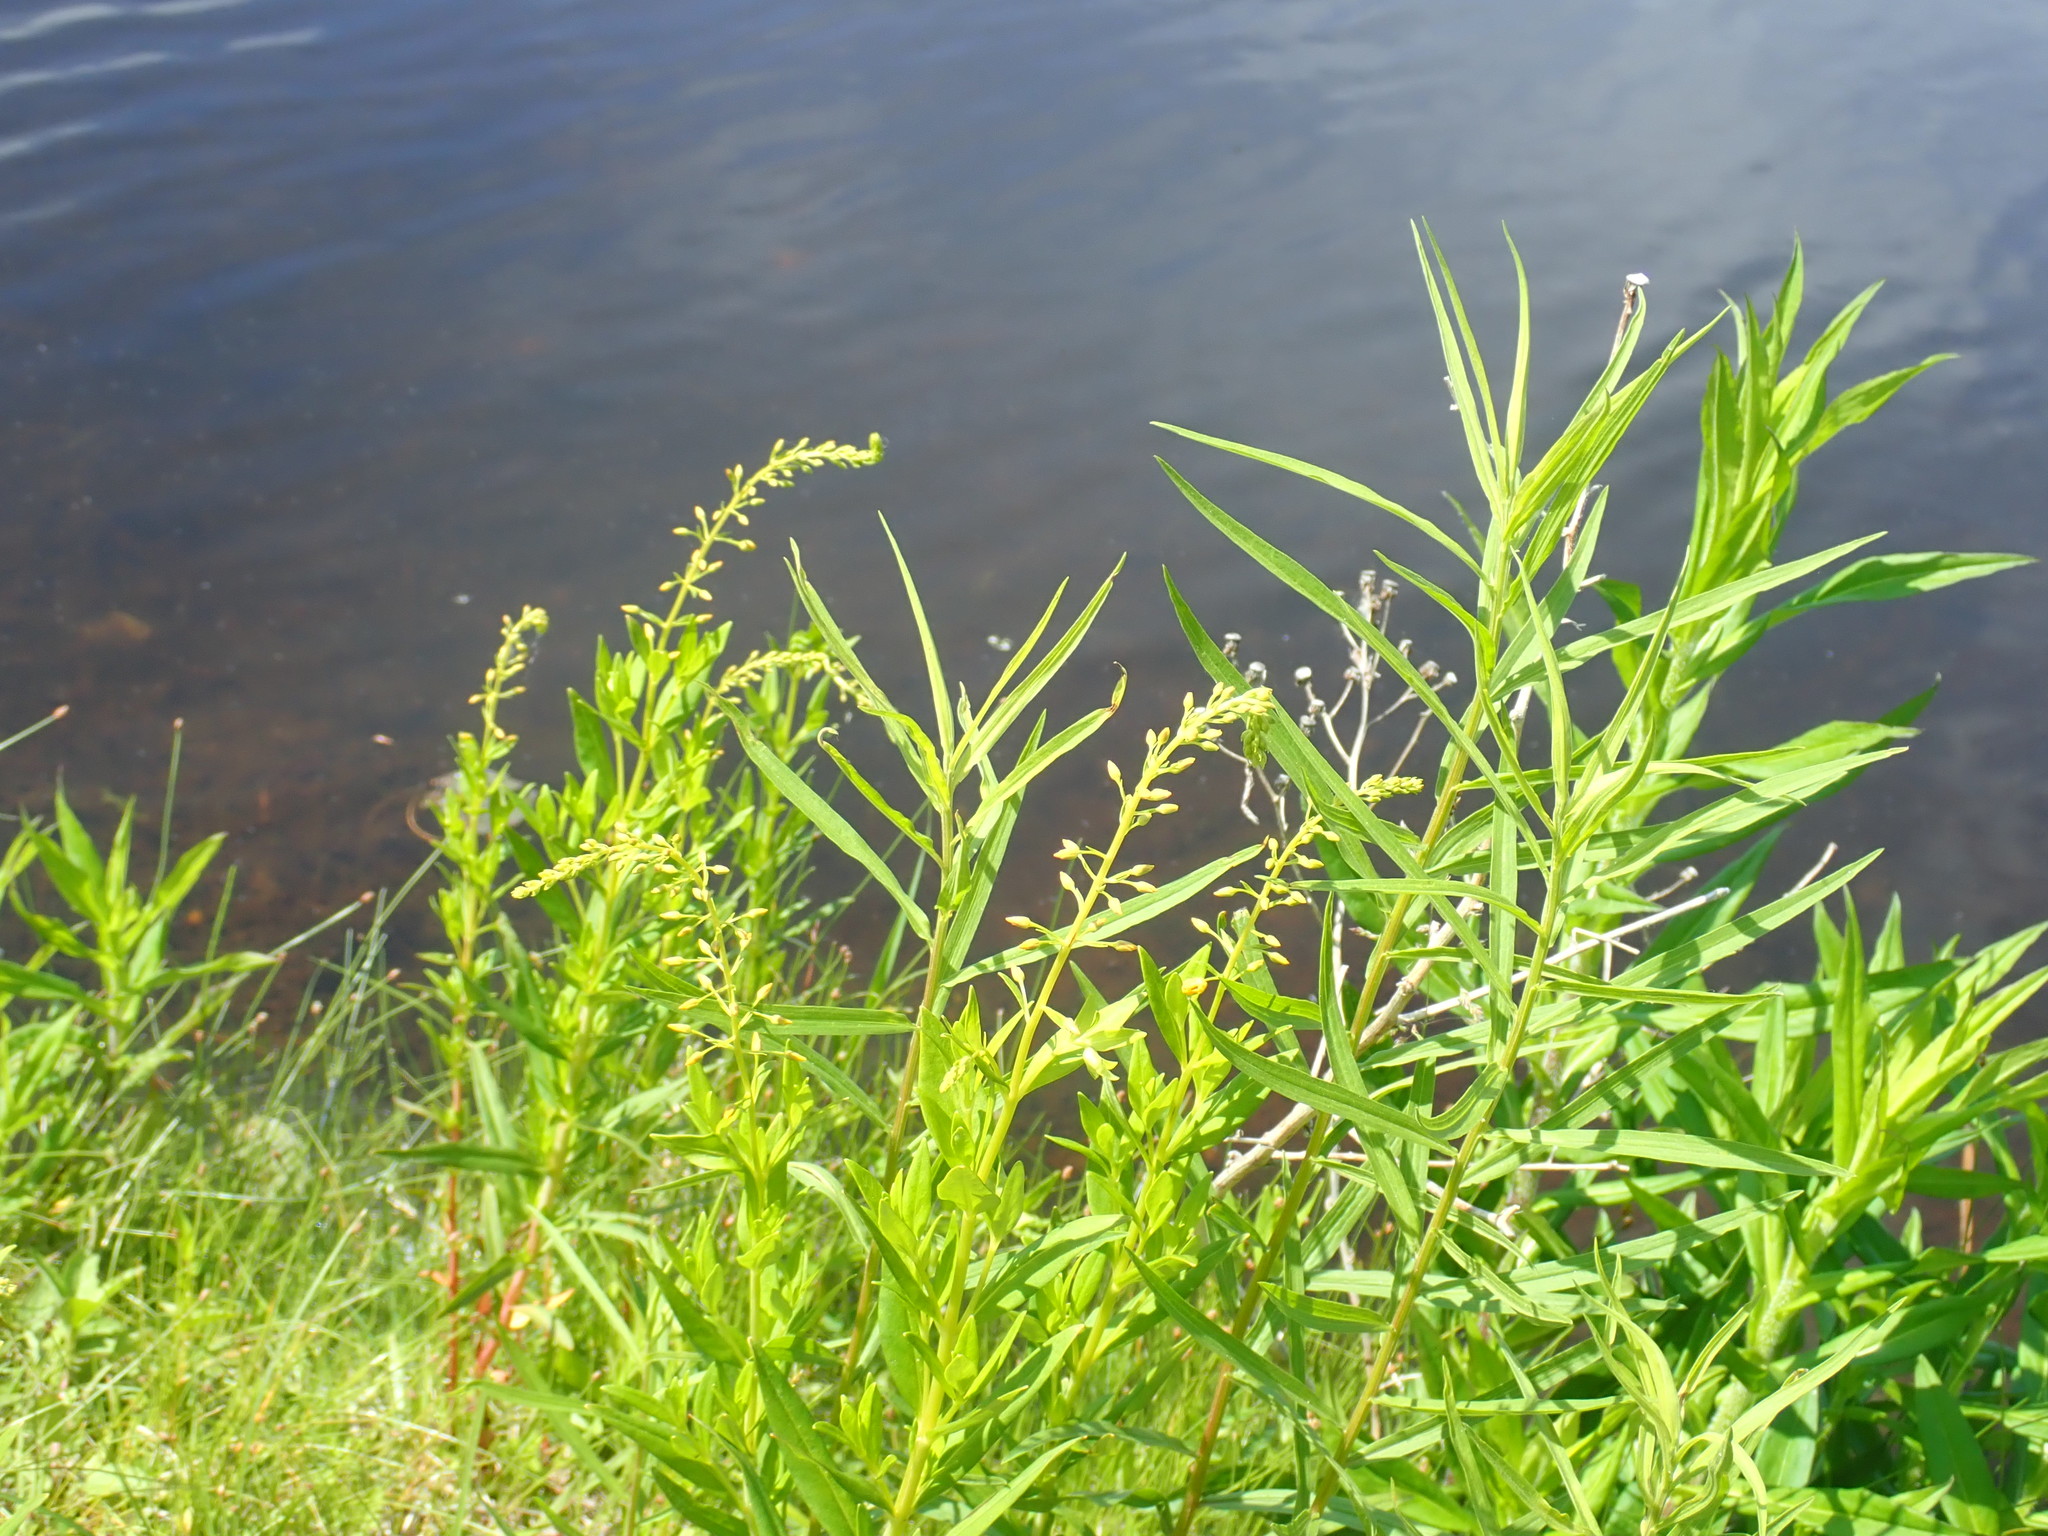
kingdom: Plantae
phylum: Tracheophyta
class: Magnoliopsida
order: Ericales
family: Primulaceae
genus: Lysimachia
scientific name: Lysimachia terrestris
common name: Lake loosestrife
